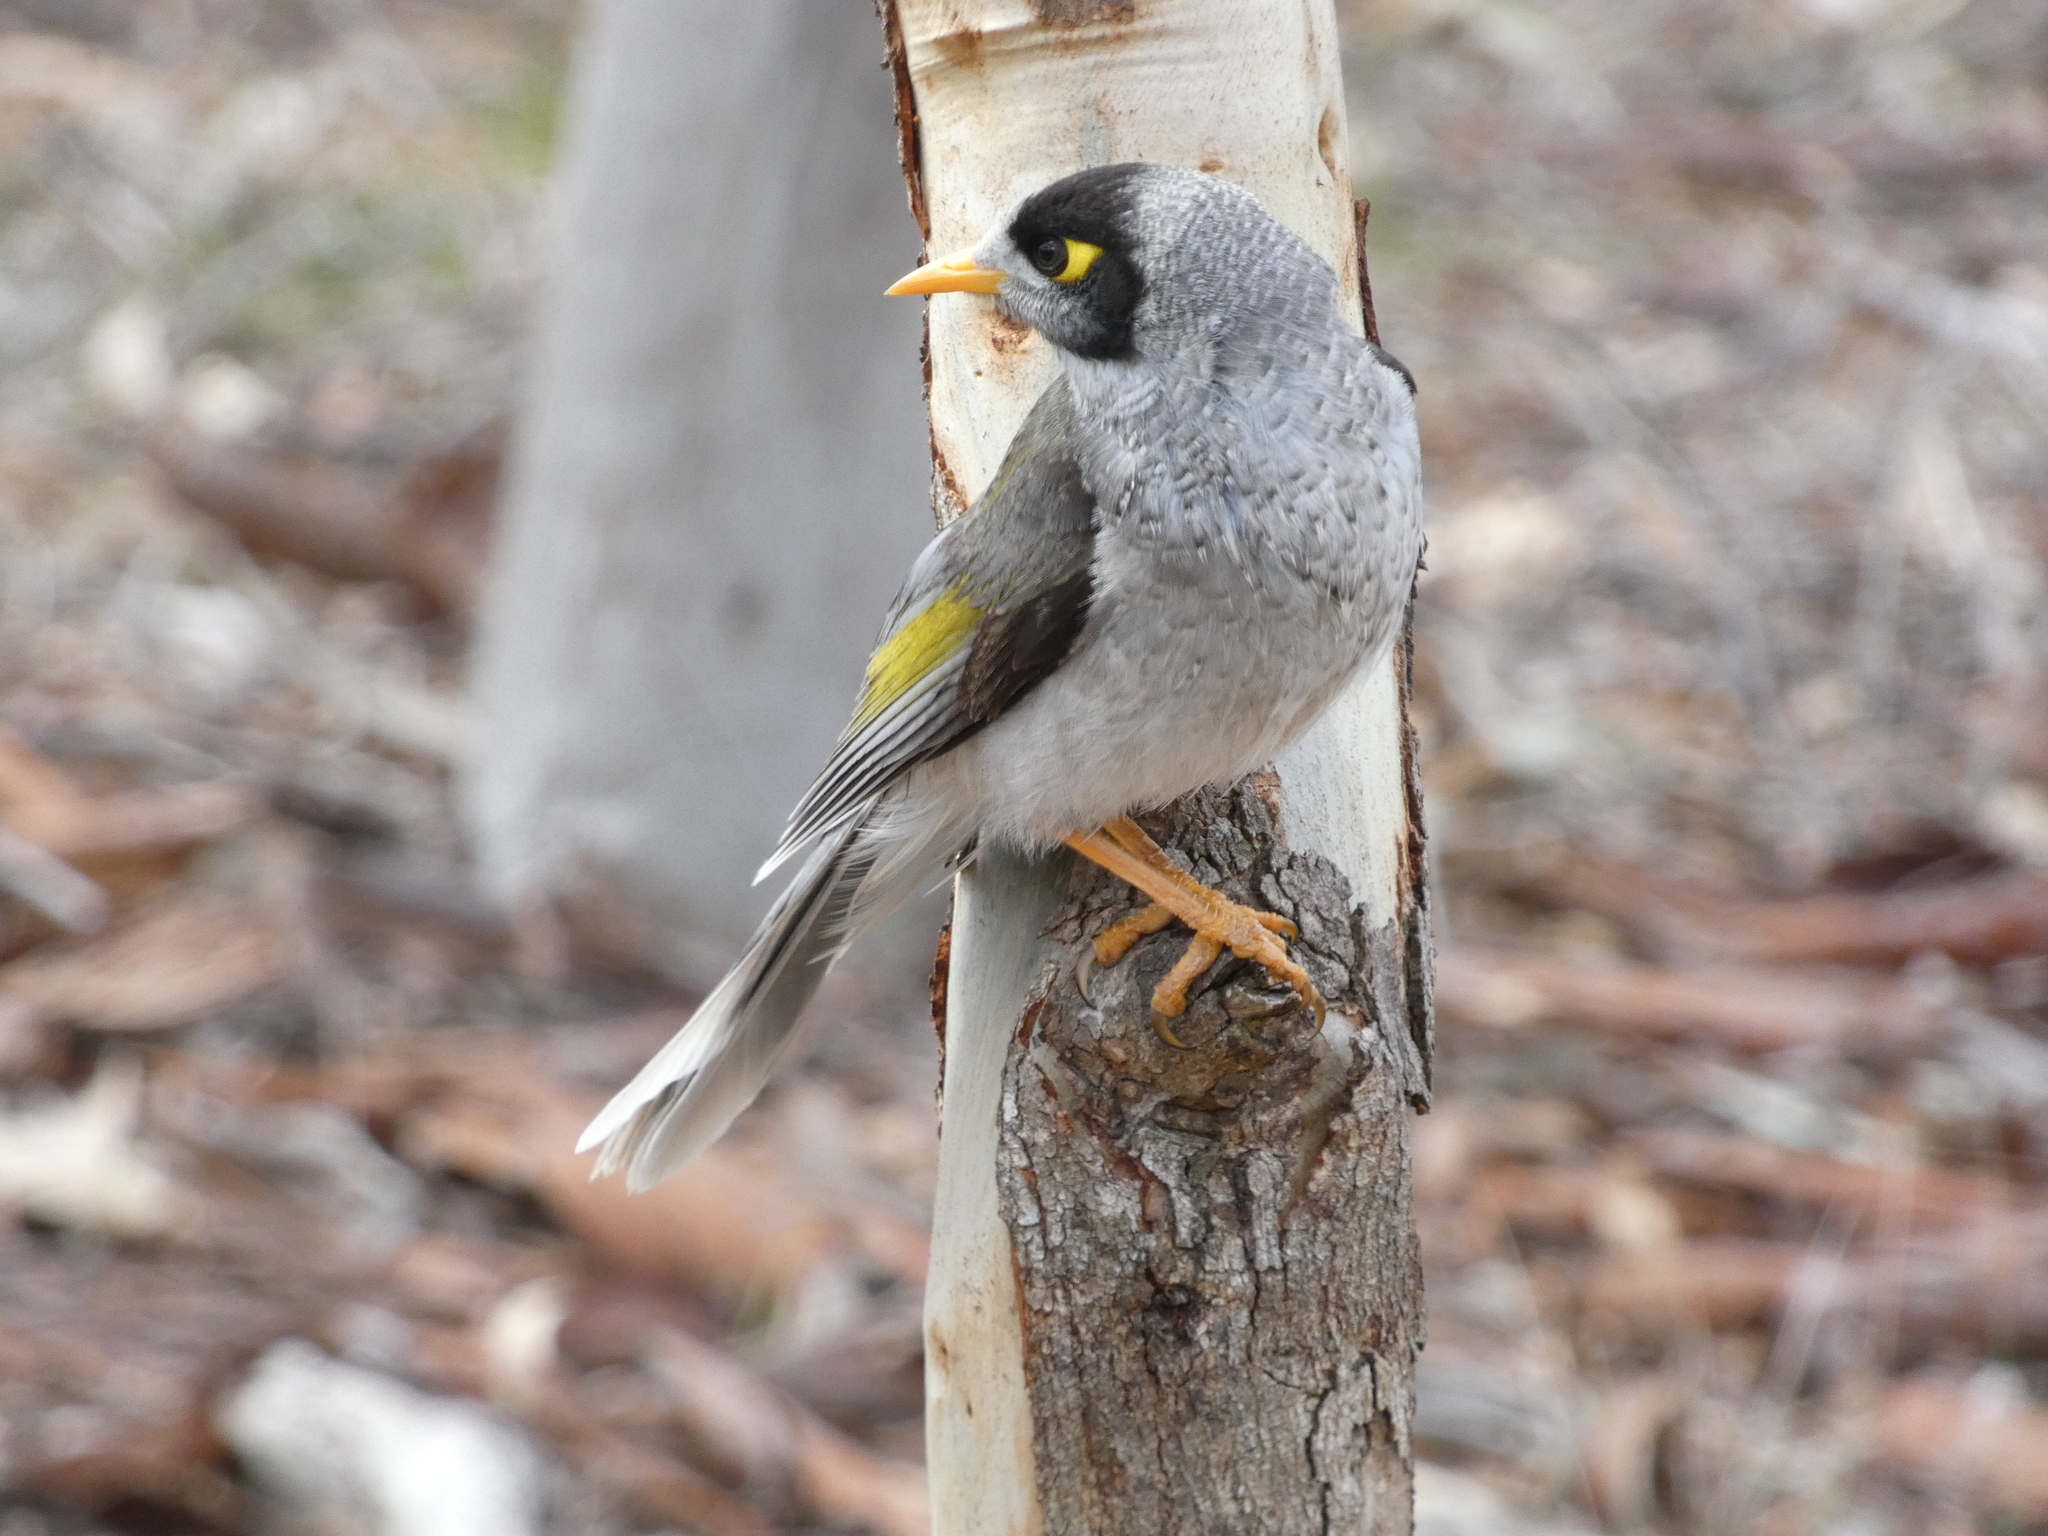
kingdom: Animalia
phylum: Chordata
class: Aves
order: Passeriformes
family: Meliphagidae
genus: Manorina
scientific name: Manorina melanocephala
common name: Noisy miner
